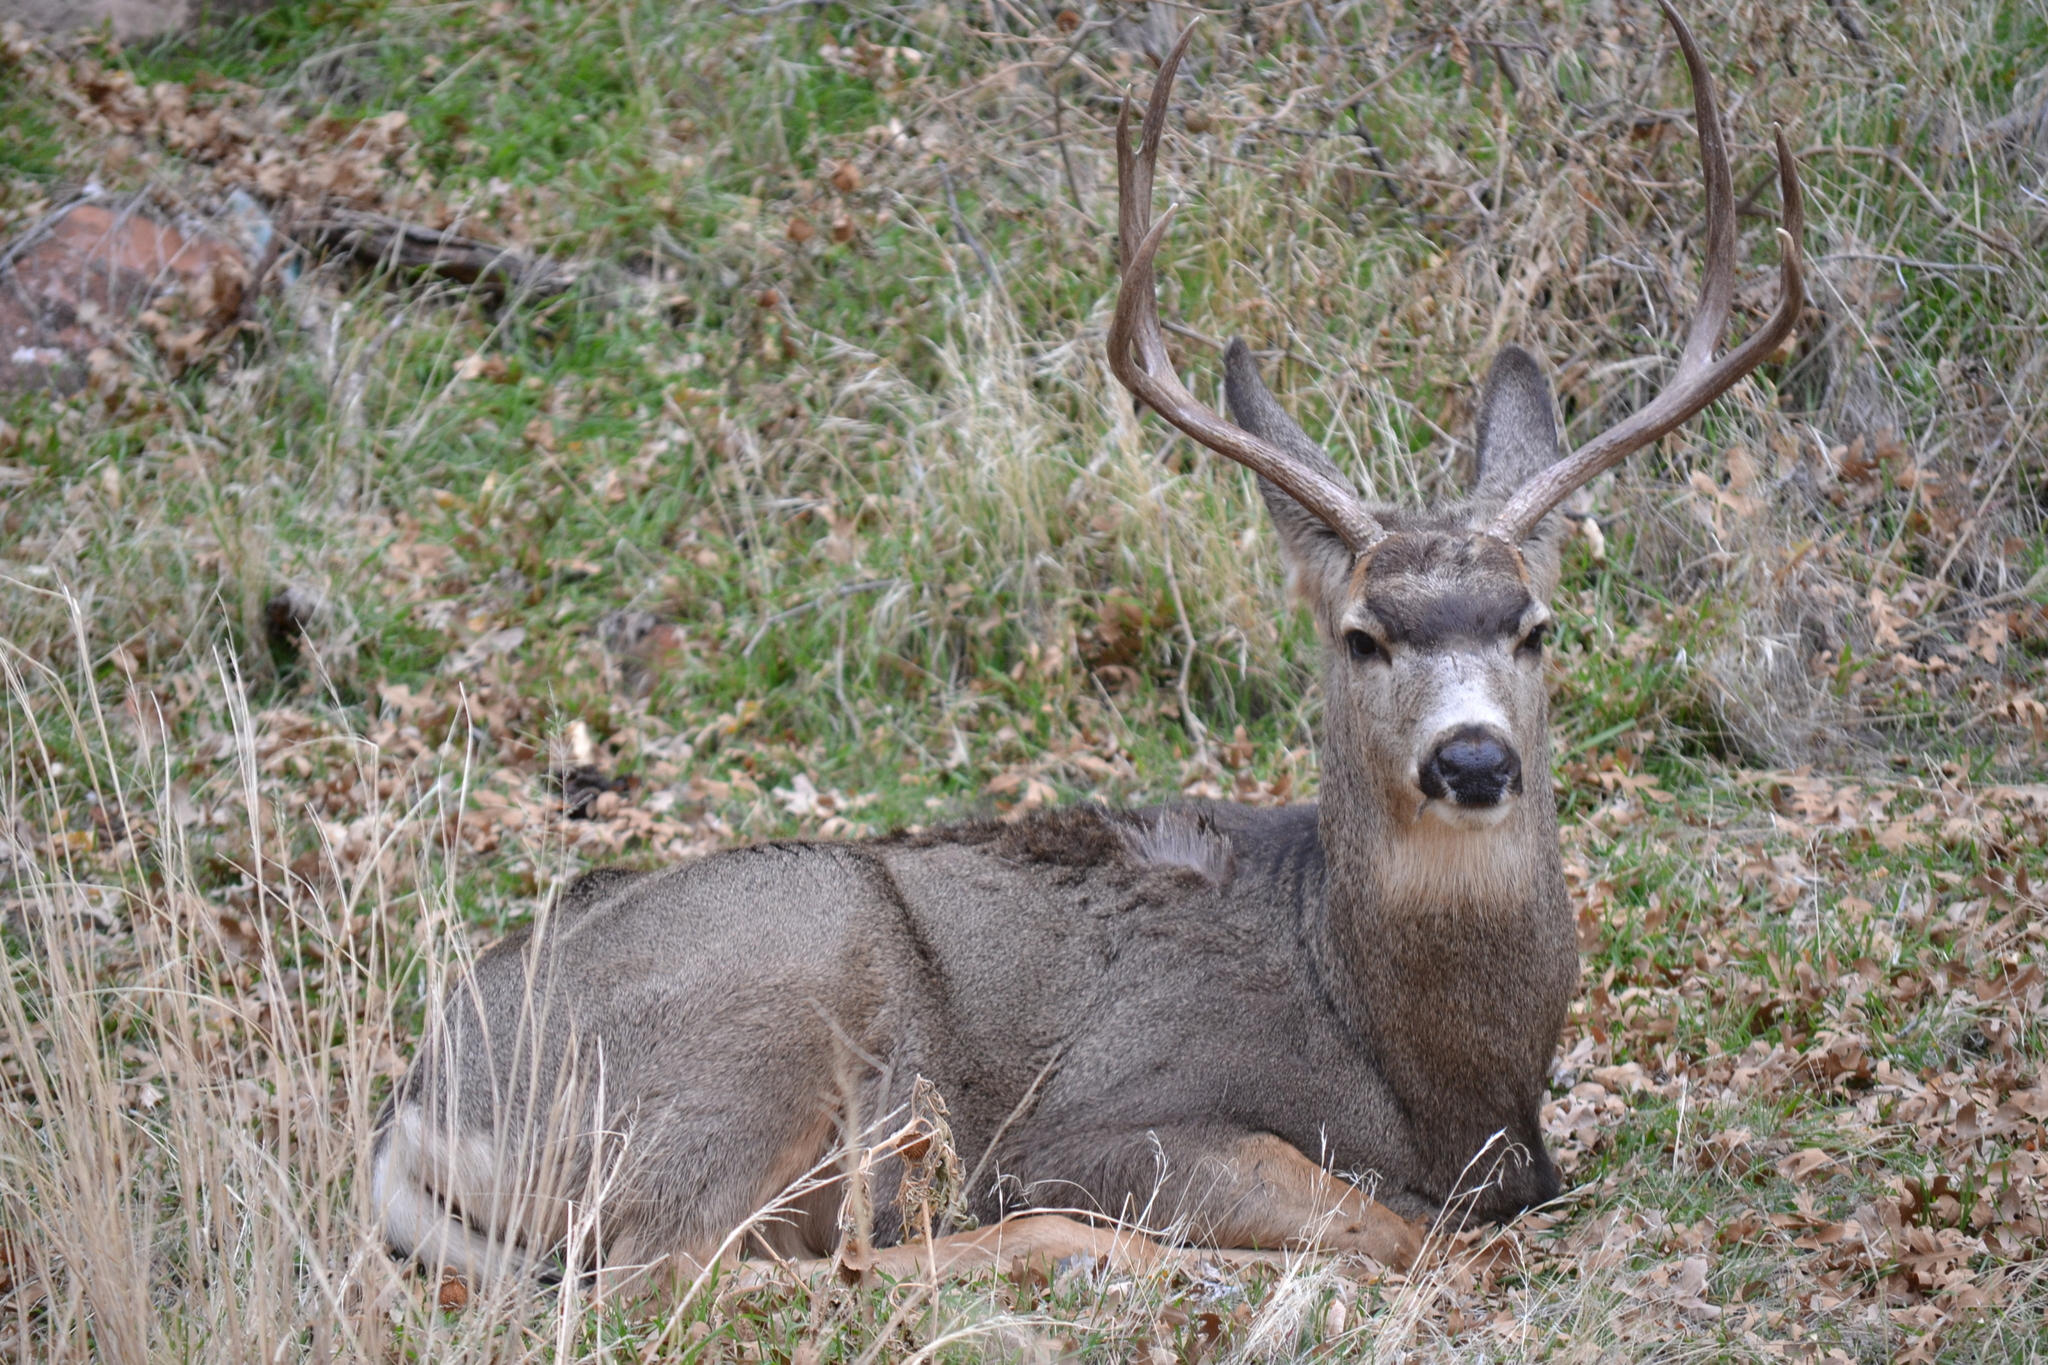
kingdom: Animalia
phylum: Chordata
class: Mammalia
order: Artiodactyla
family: Cervidae
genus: Odocoileus
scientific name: Odocoileus hemionus
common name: Mule deer
